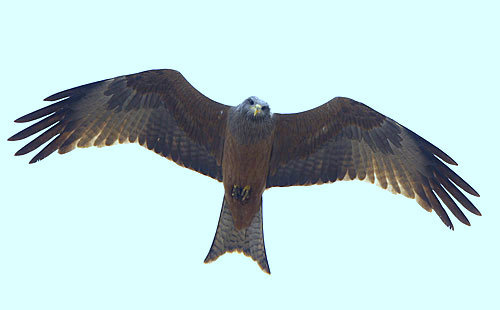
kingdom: Animalia
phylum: Chordata
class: Aves
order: Accipitriformes
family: Accipitridae
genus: Milvus
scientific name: Milvus migrans
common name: Black kite
